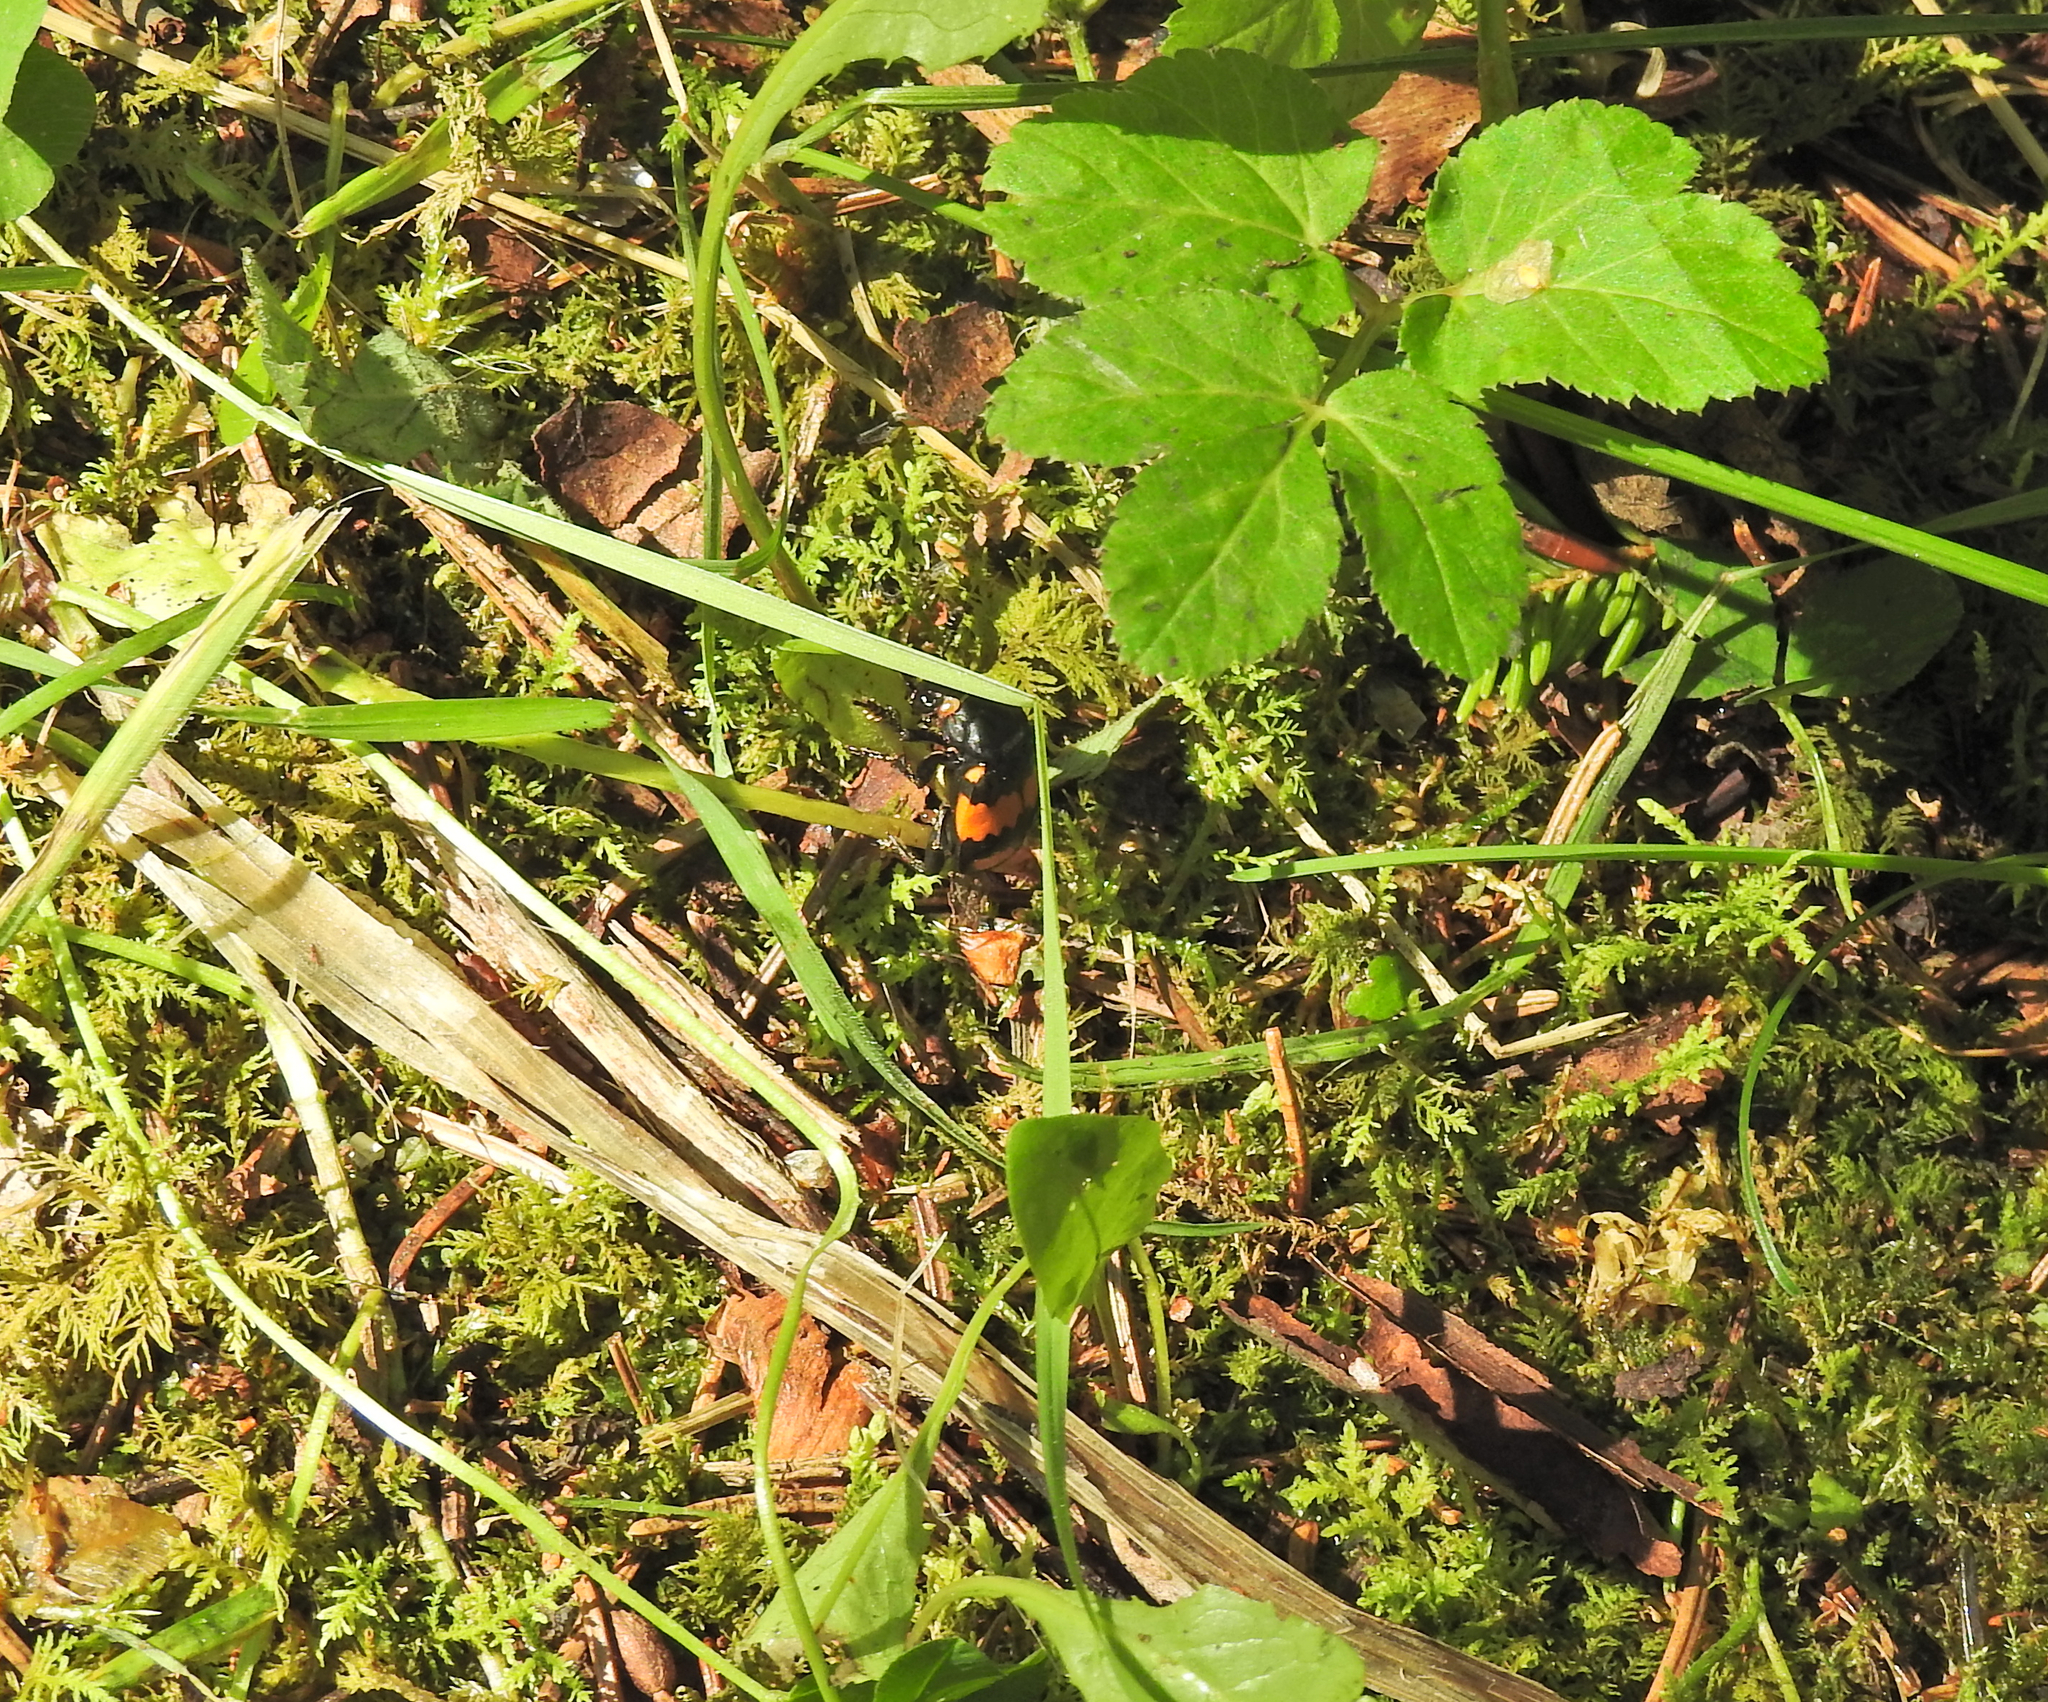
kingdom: Animalia
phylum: Arthropoda
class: Insecta
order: Coleoptera
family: Staphylinidae
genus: Nicrophorus
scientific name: Nicrophorus vespilloides
